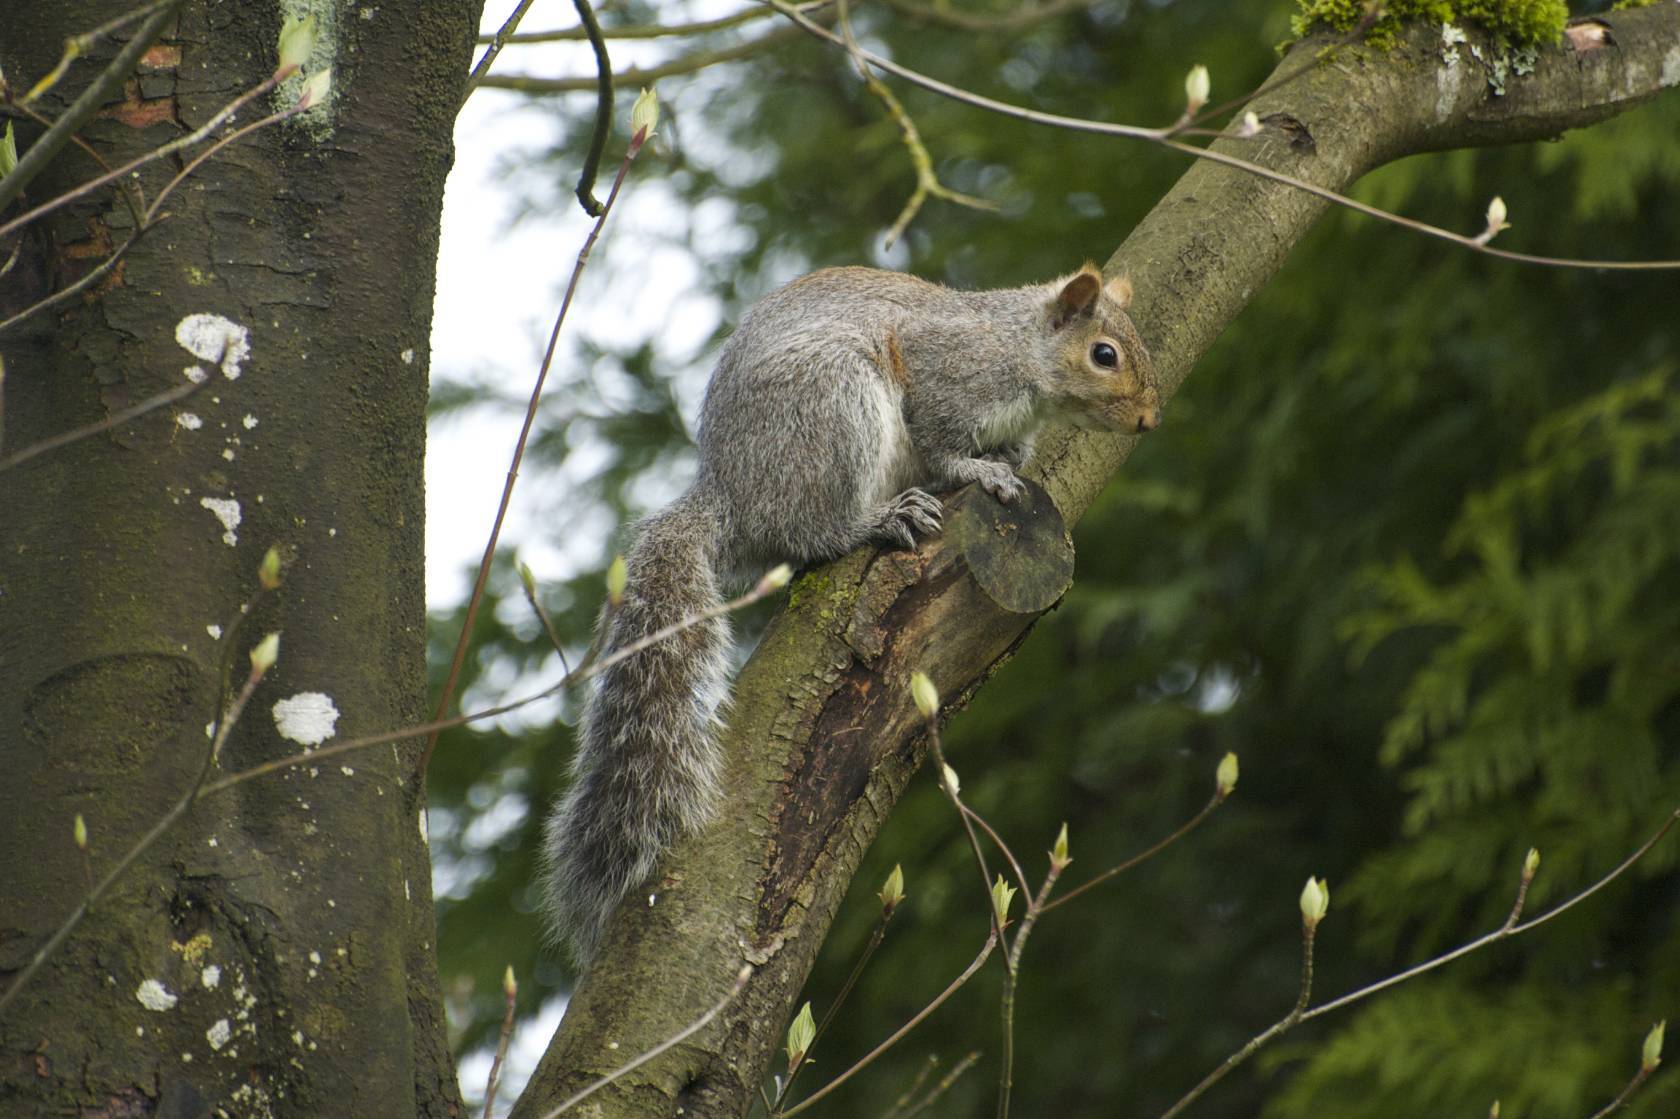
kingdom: Animalia
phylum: Chordata
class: Mammalia
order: Rodentia
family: Sciuridae
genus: Sciurus
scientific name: Sciurus carolinensis
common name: Eastern gray squirrel
